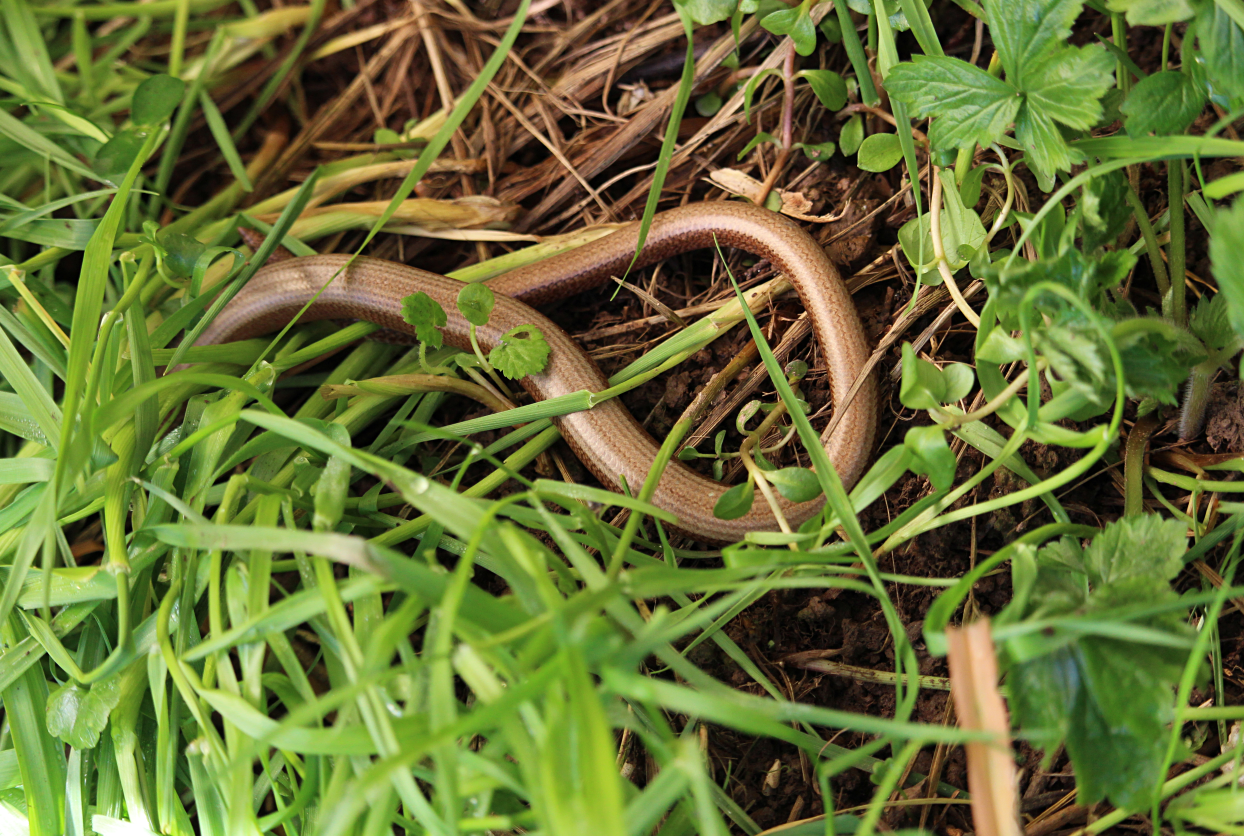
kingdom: Animalia
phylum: Chordata
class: Squamata
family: Anguidae
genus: Anguis
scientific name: Anguis fragilis
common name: Slow worm
